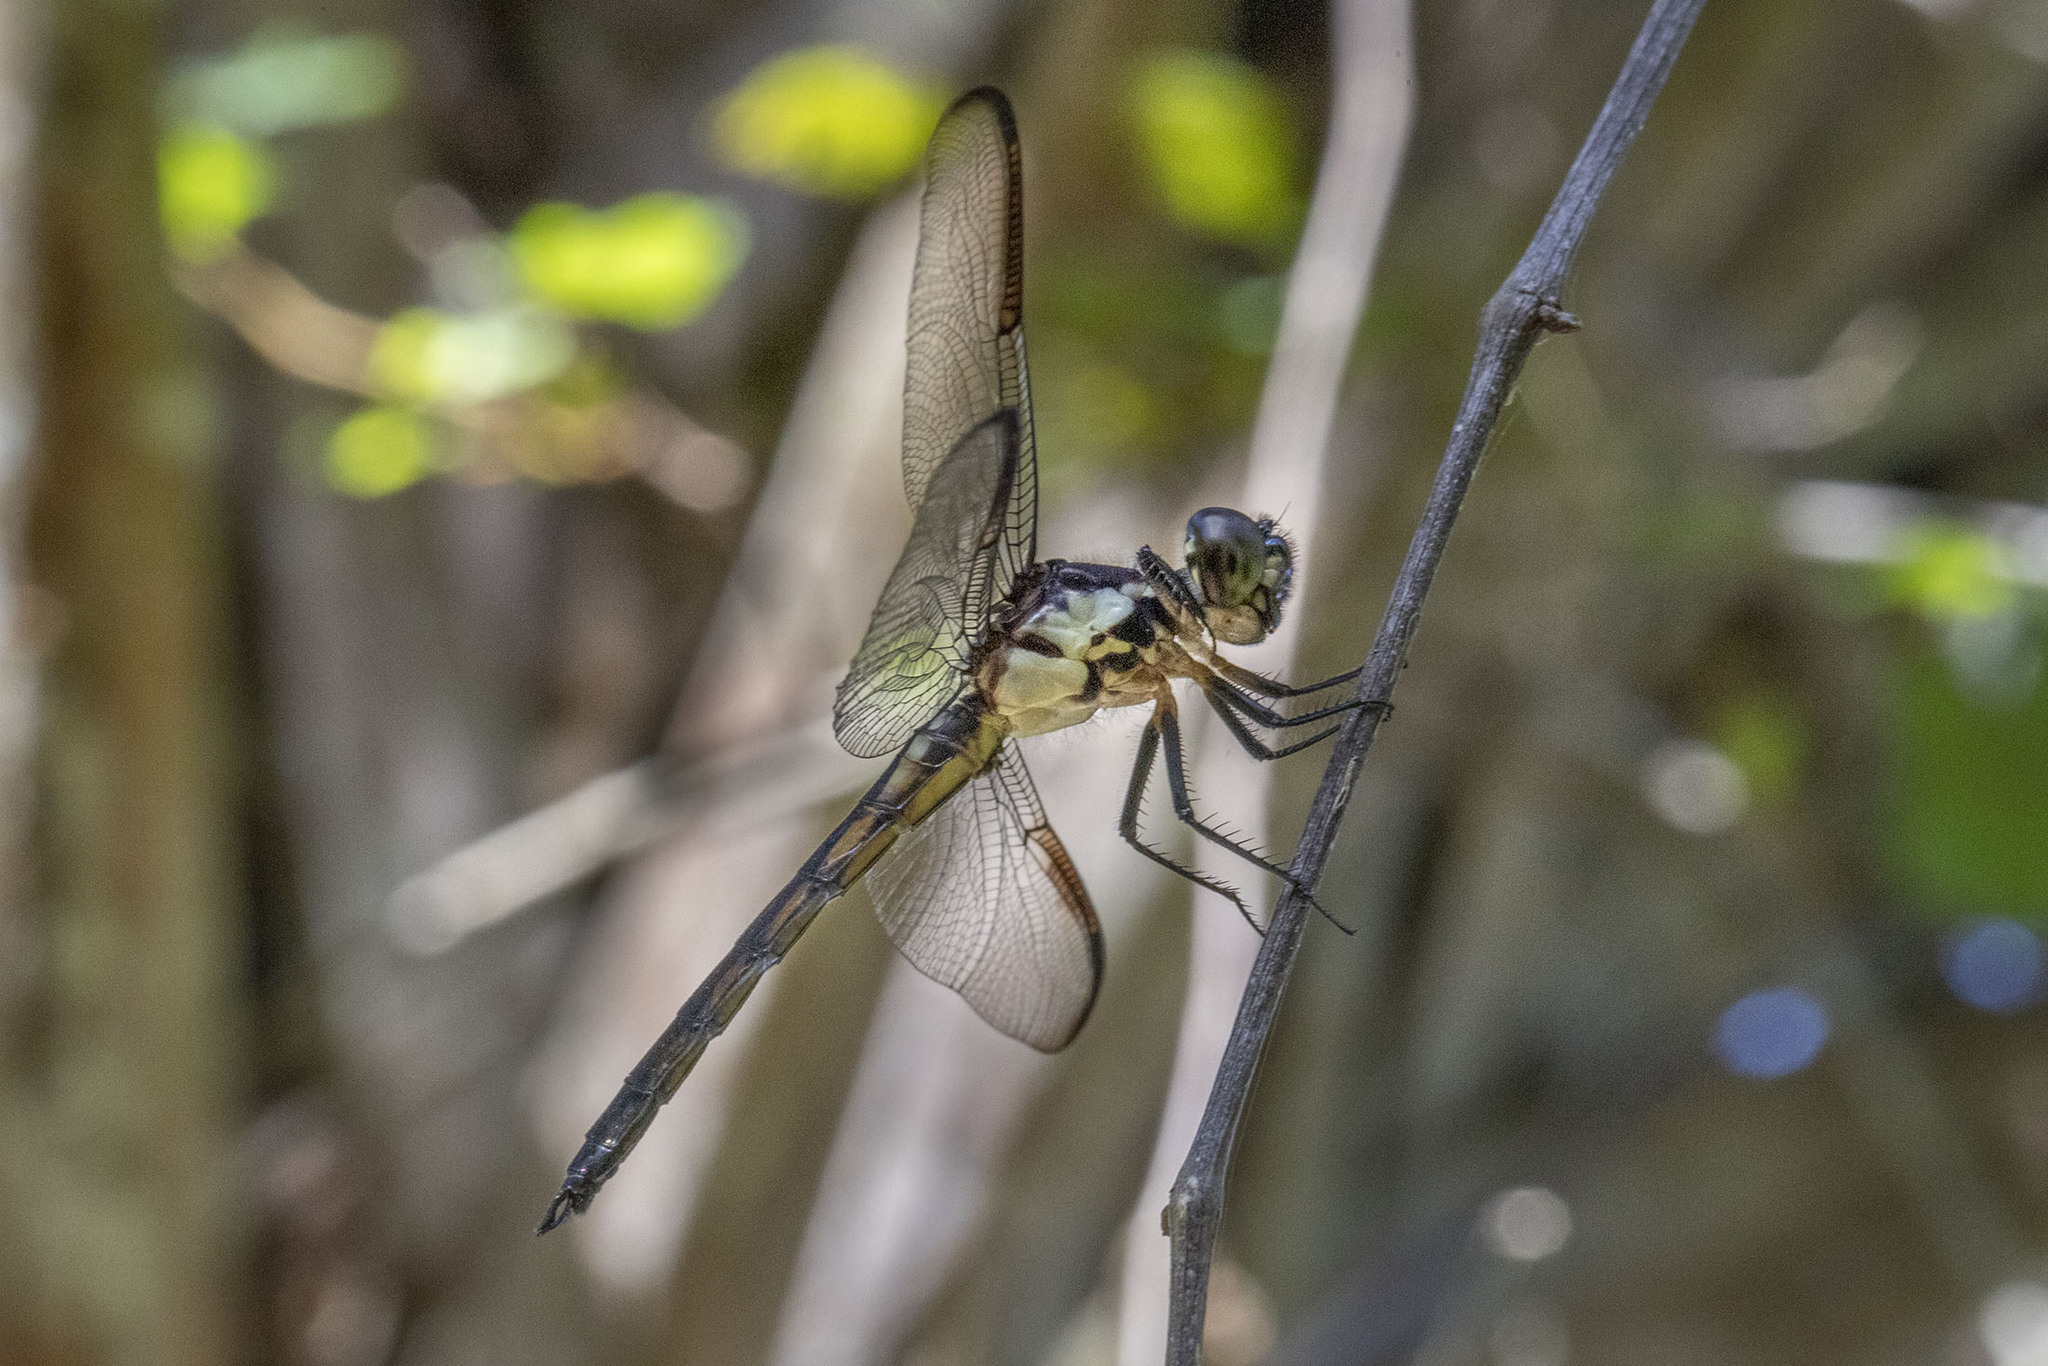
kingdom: Animalia
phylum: Arthropoda
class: Insecta
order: Odonata
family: Libellulidae
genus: Libellula
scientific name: Libellula incesta
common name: Slaty skimmer
